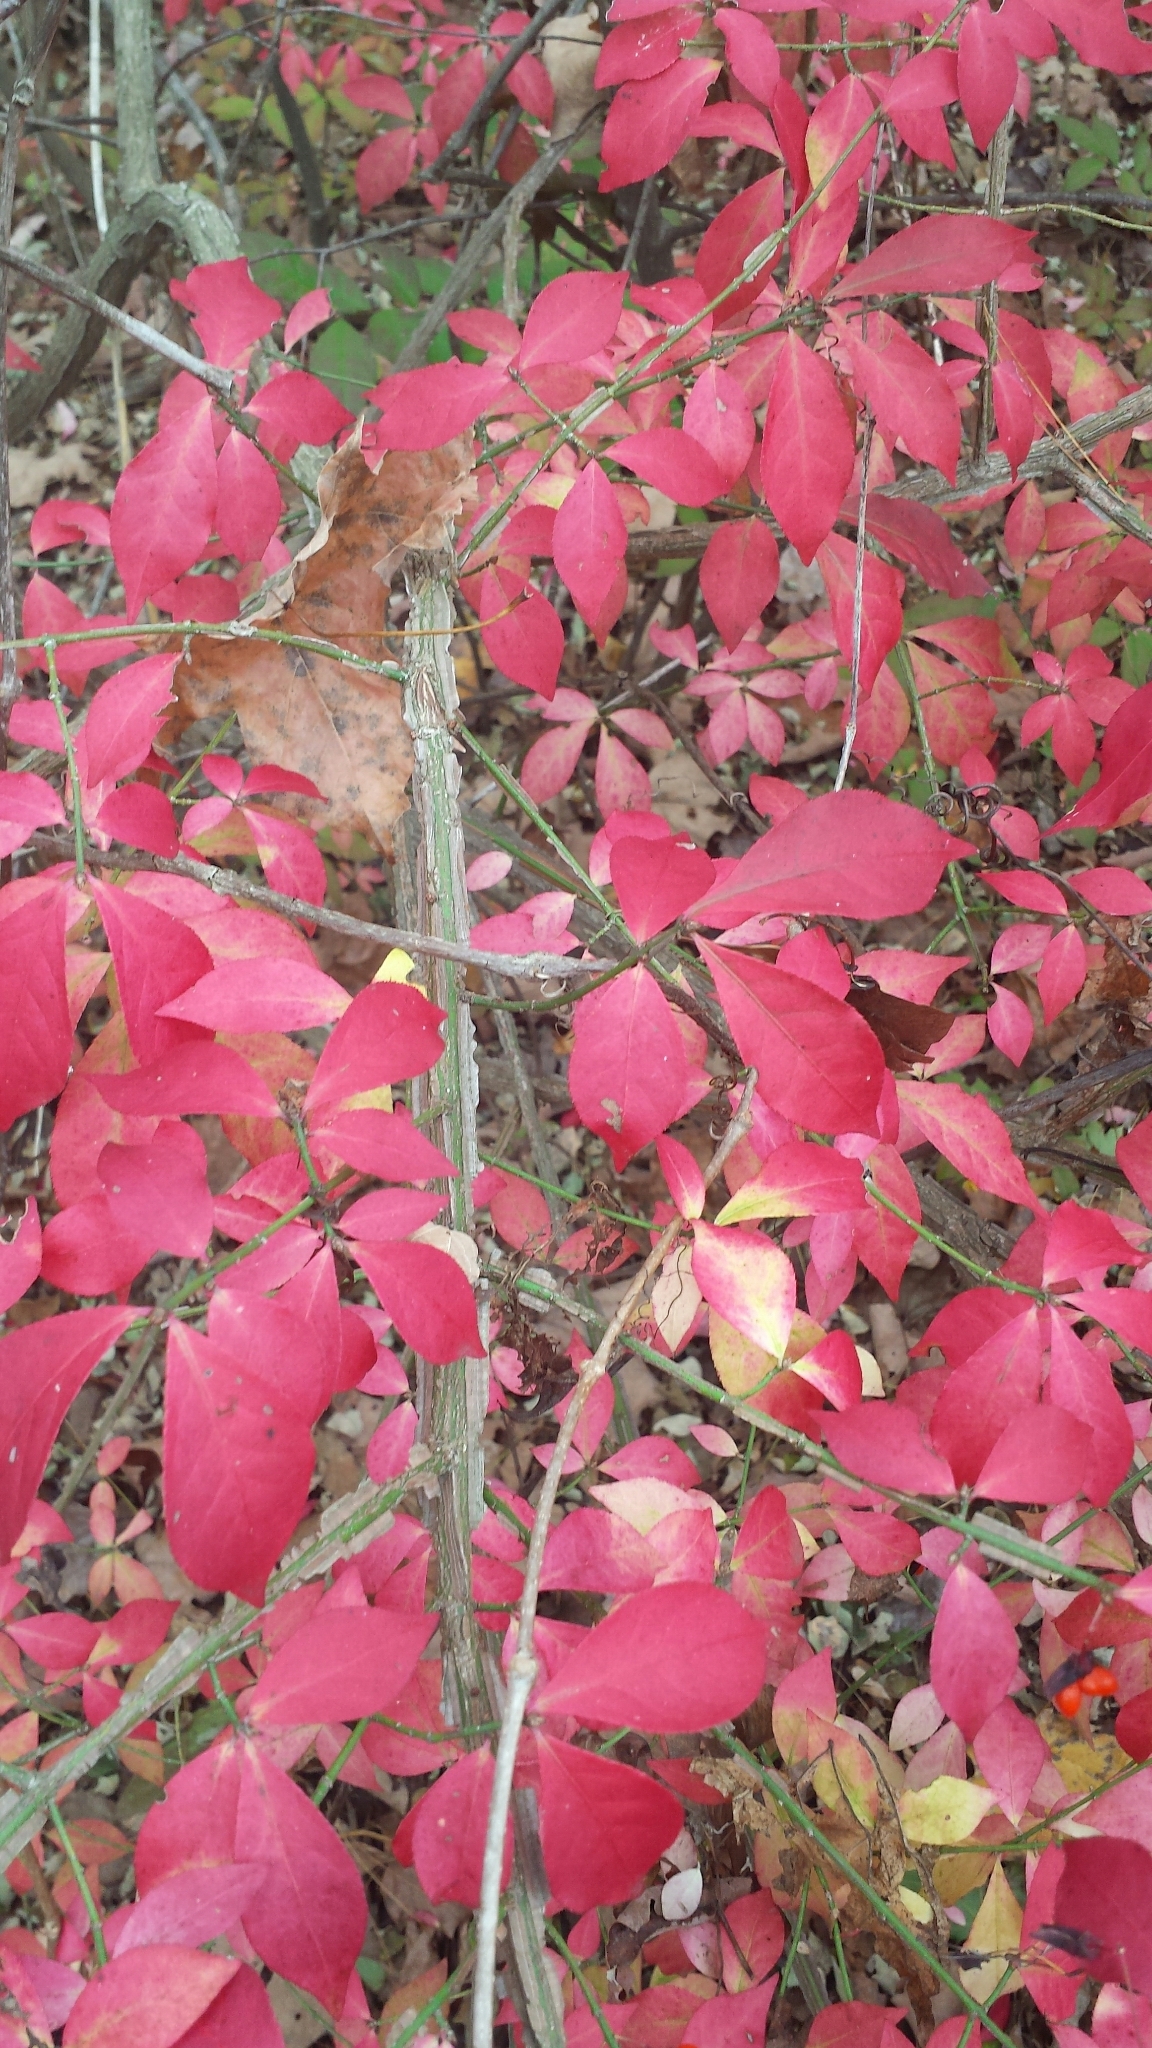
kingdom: Plantae
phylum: Tracheophyta
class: Magnoliopsida
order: Celastrales
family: Celastraceae
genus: Euonymus
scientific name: Euonymus alatus
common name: Winged euonymus
